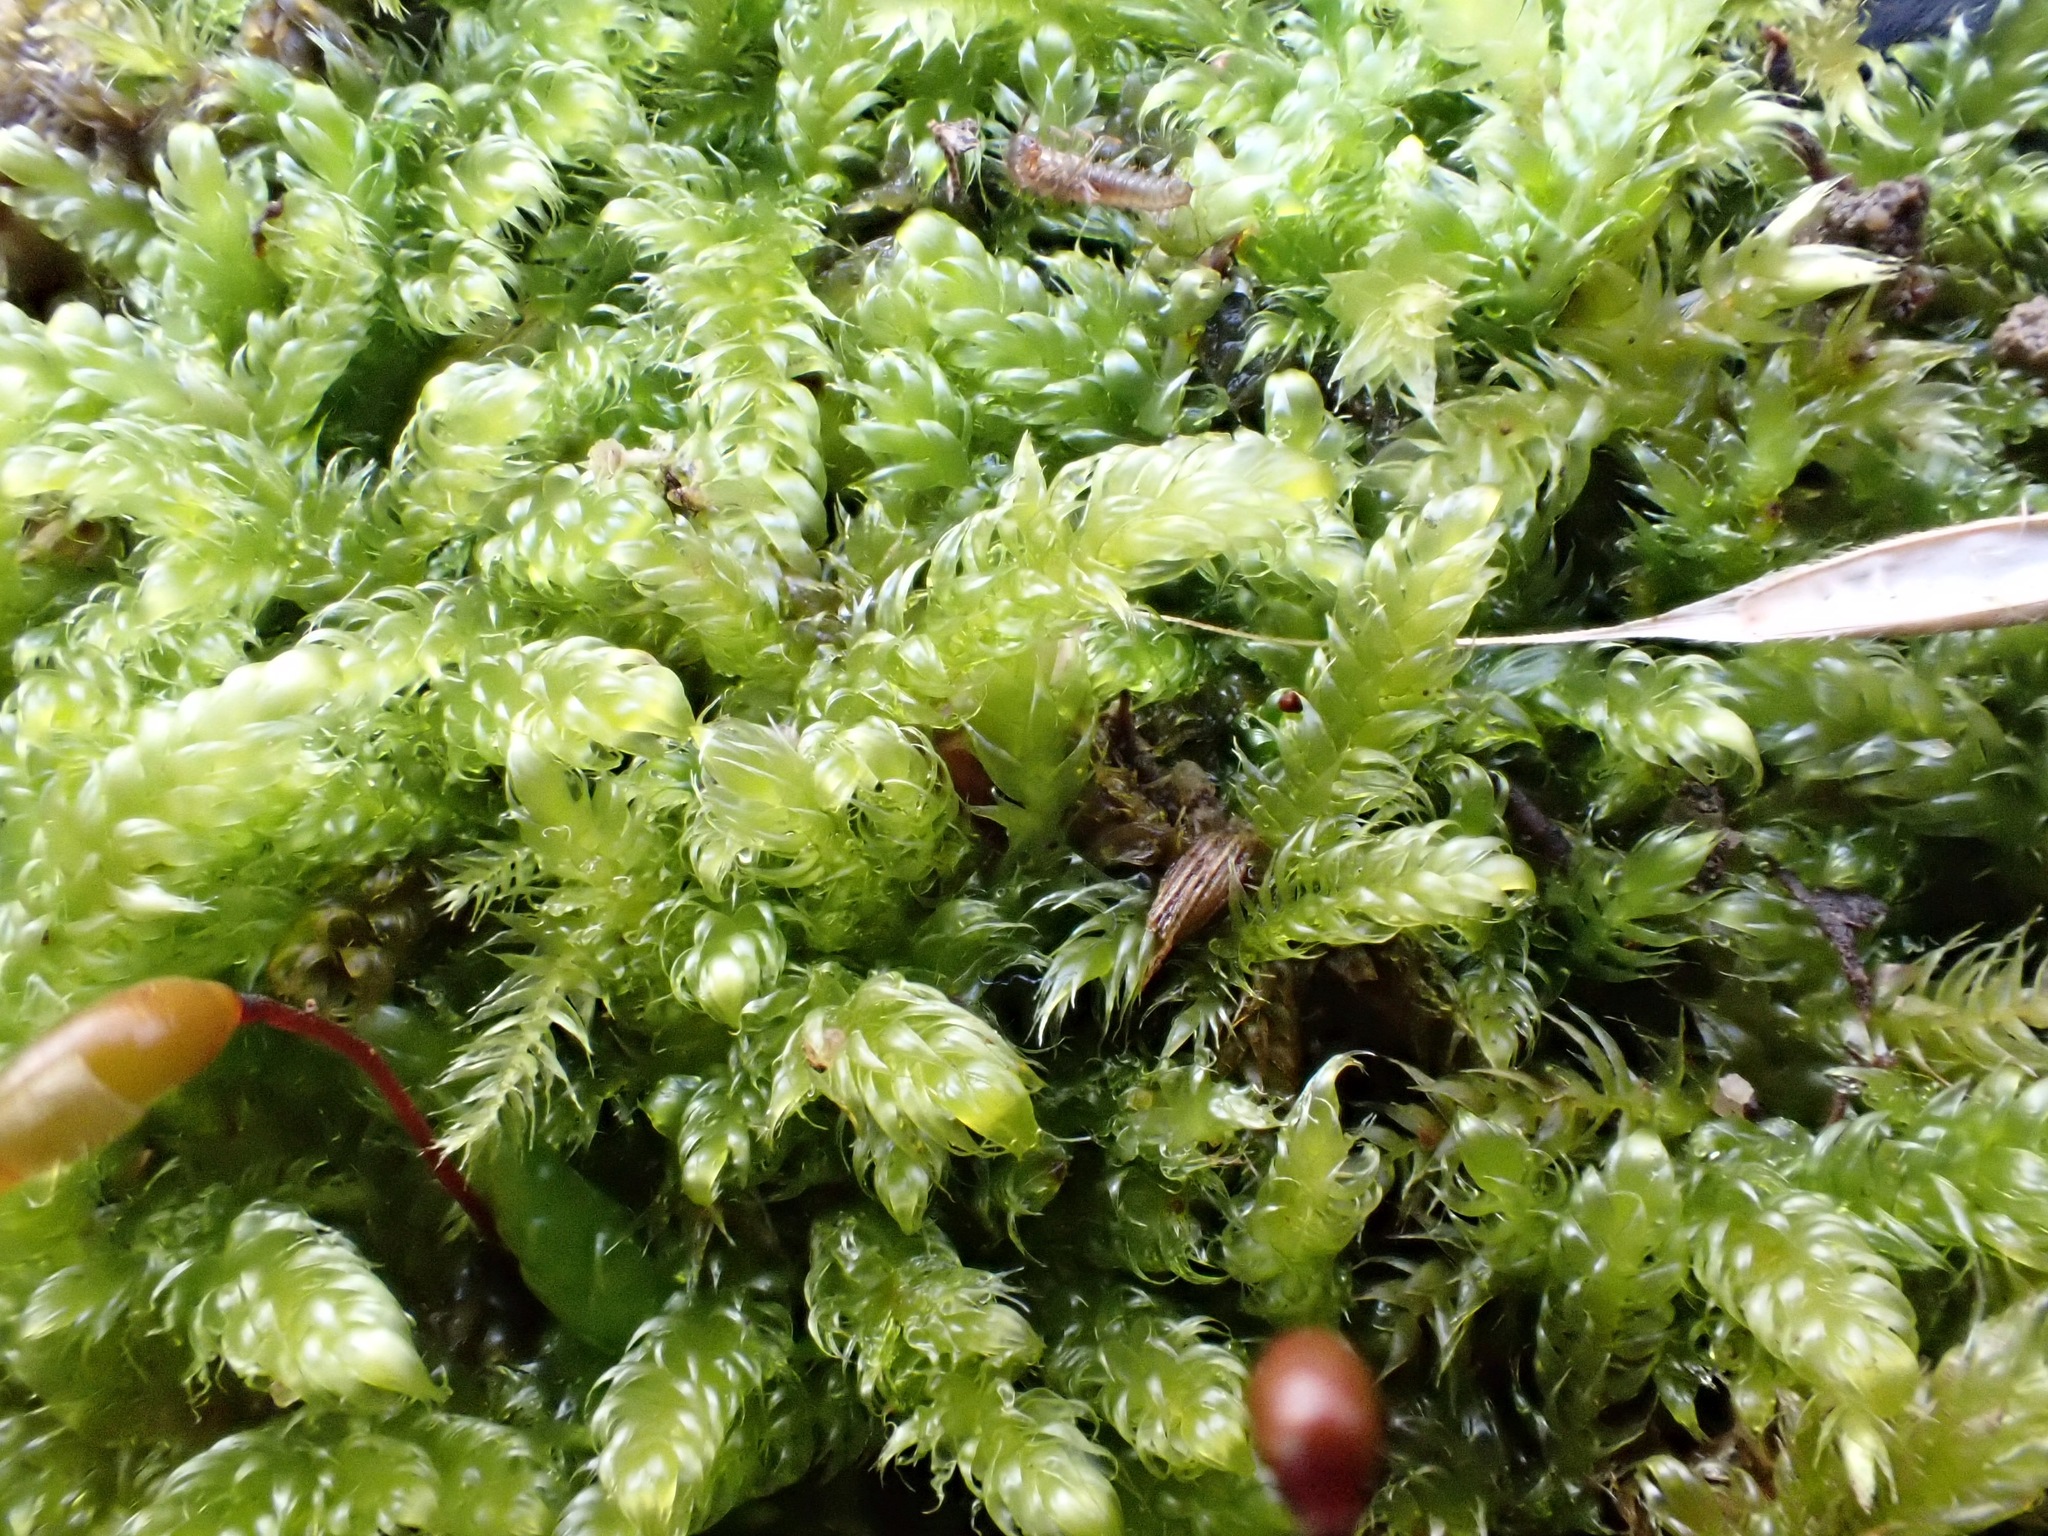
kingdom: Plantae
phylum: Bryophyta
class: Bryopsida
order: Hypnales
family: Hypnaceae
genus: Hypnum
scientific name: Hypnum cupressiforme
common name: Cypress-leaved plait-moss
